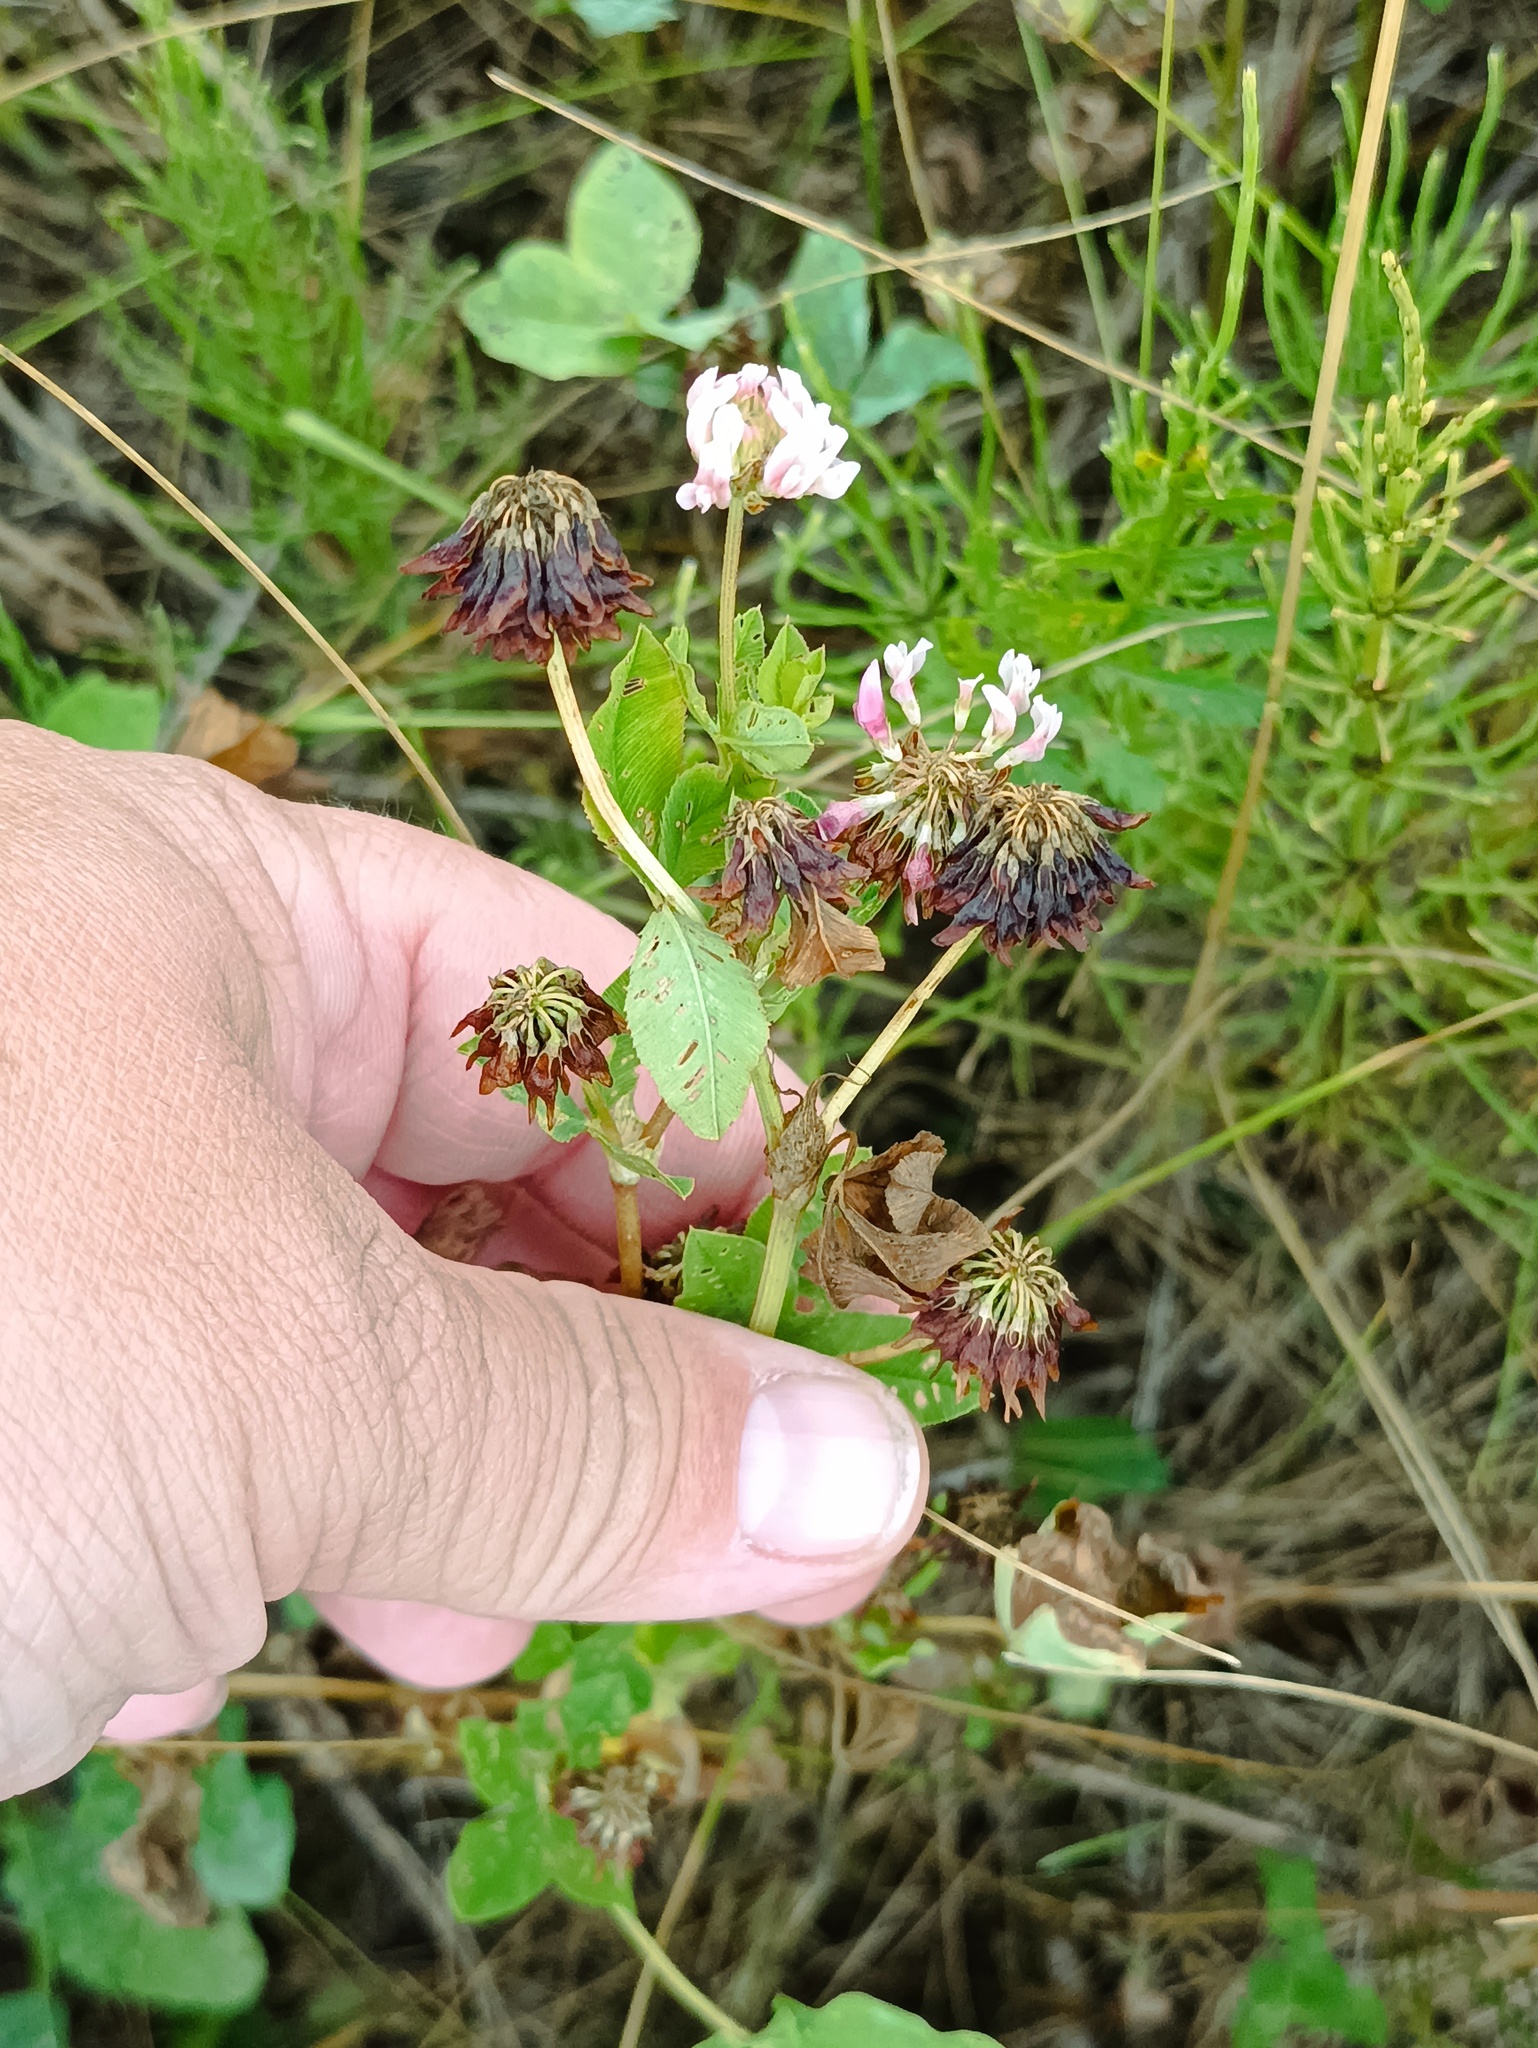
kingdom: Plantae
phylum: Tracheophyta
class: Magnoliopsida
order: Fabales
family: Fabaceae
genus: Trifolium
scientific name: Trifolium hybridum
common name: Alsike clover
